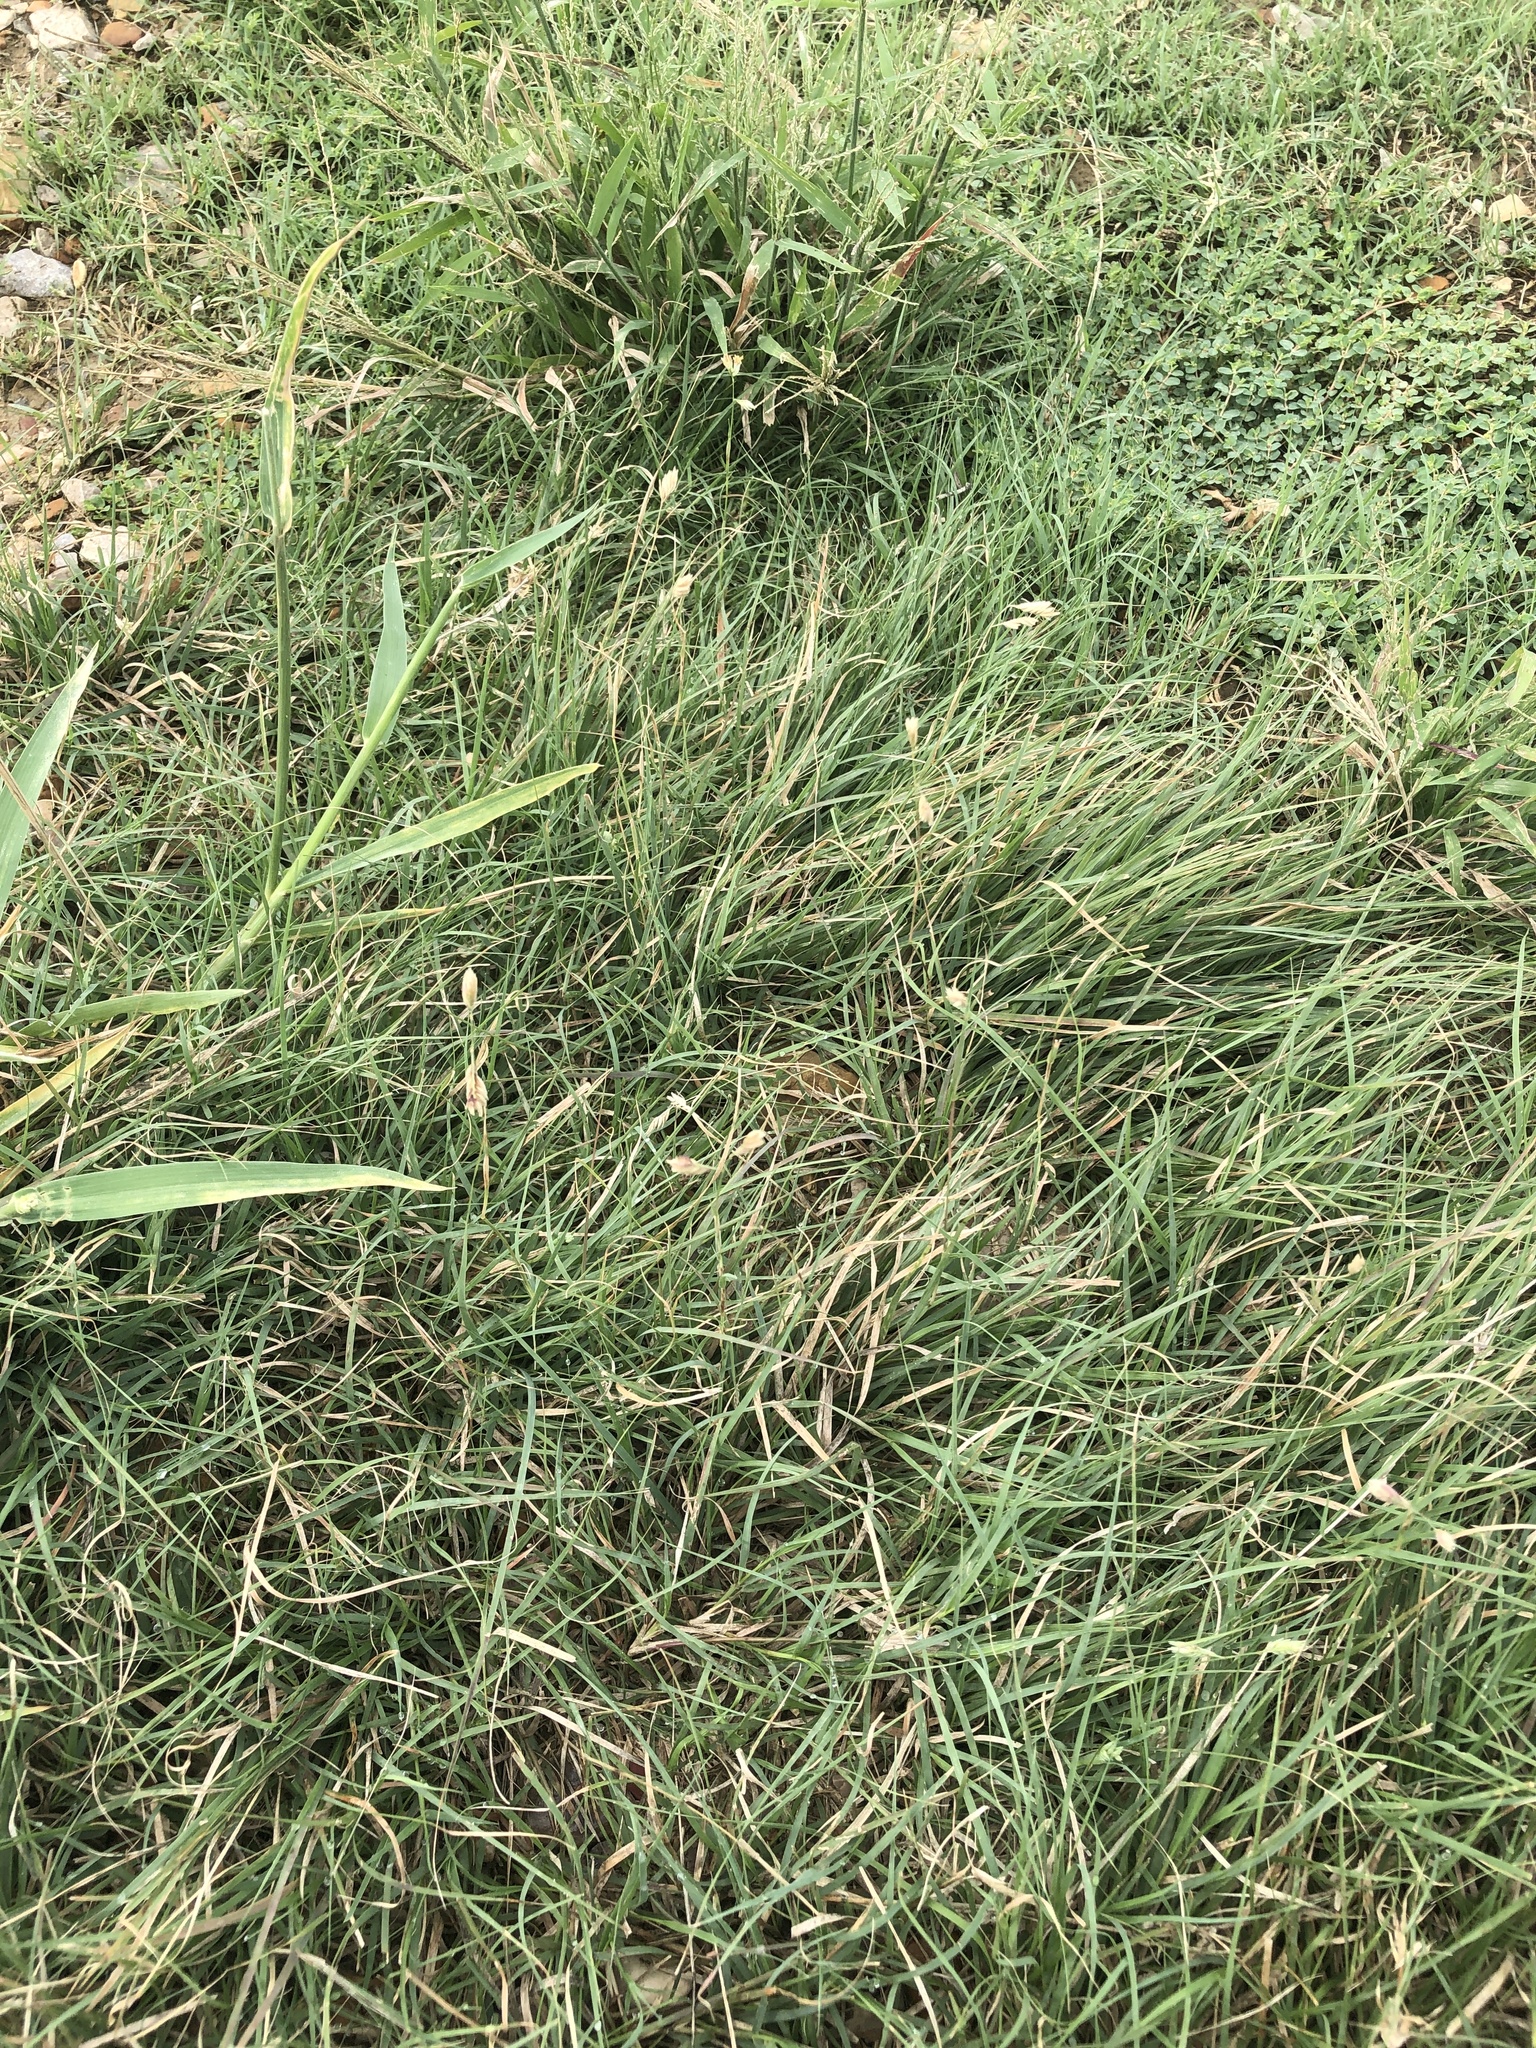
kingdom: Plantae
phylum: Tracheophyta
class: Liliopsida
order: Poales
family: Poaceae
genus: Bouteloua
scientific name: Bouteloua dactyloides
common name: Buffalo grass
